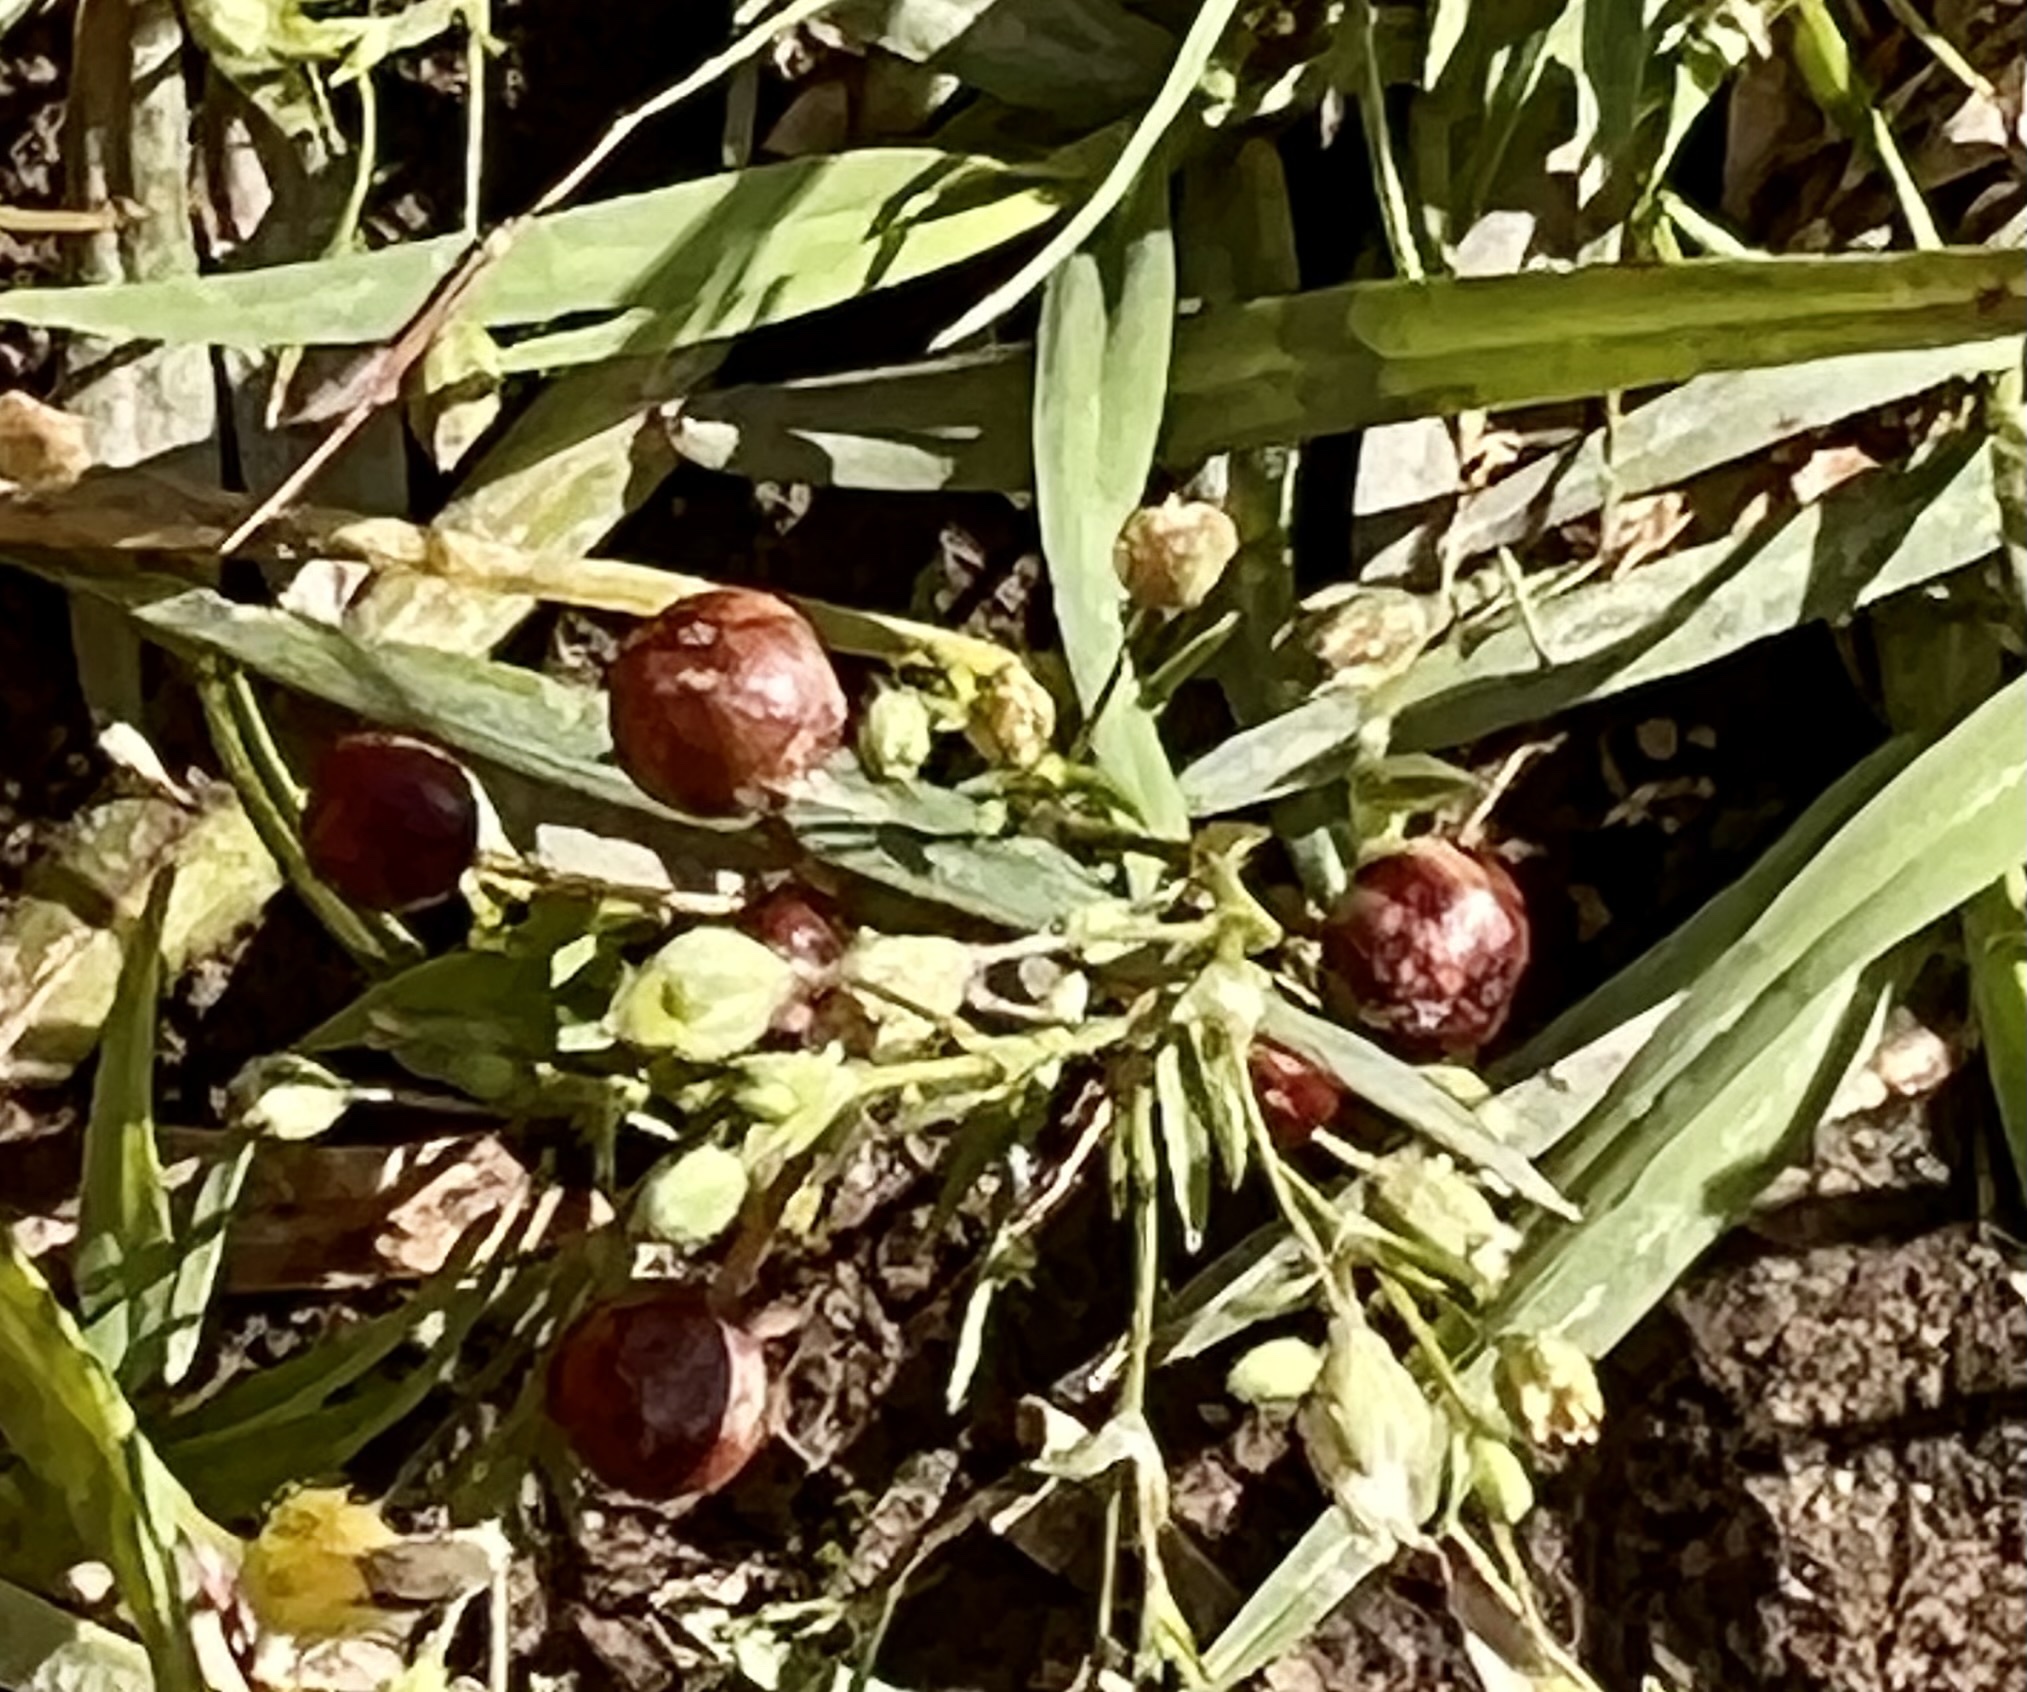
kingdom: Plantae
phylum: Tracheophyta
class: Liliopsida
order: Asparagales
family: Iridaceae
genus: Sisyrinchium
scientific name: Sisyrinchium micranthum
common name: Bermuda pigroot
